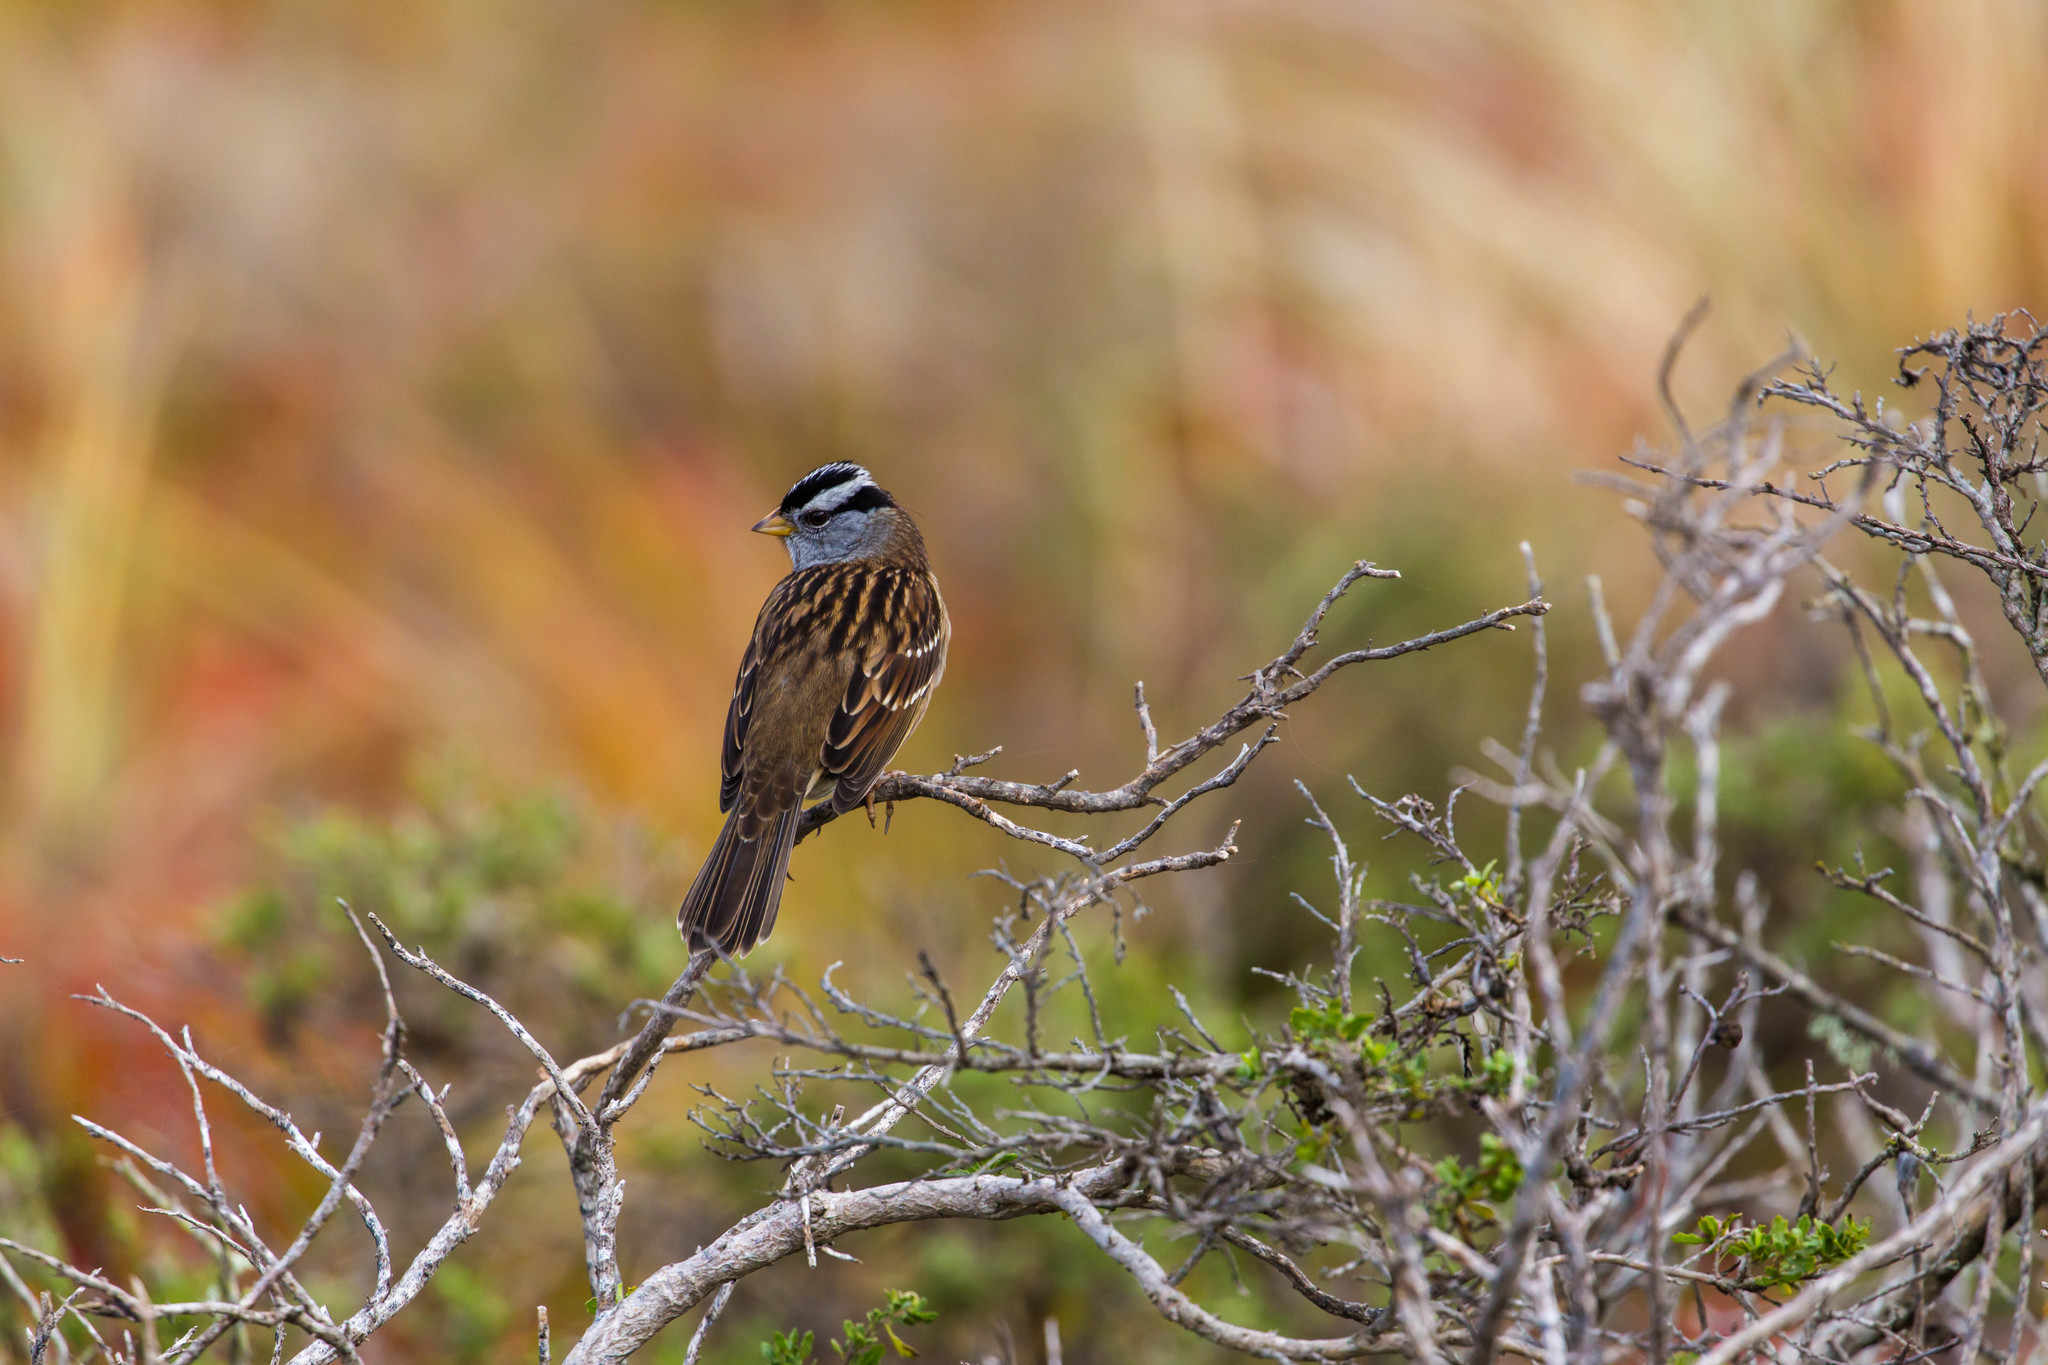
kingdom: Animalia
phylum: Chordata
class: Aves
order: Passeriformes
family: Passerellidae
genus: Zonotrichia
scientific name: Zonotrichia leucophrys
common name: White-crowned sparrow
